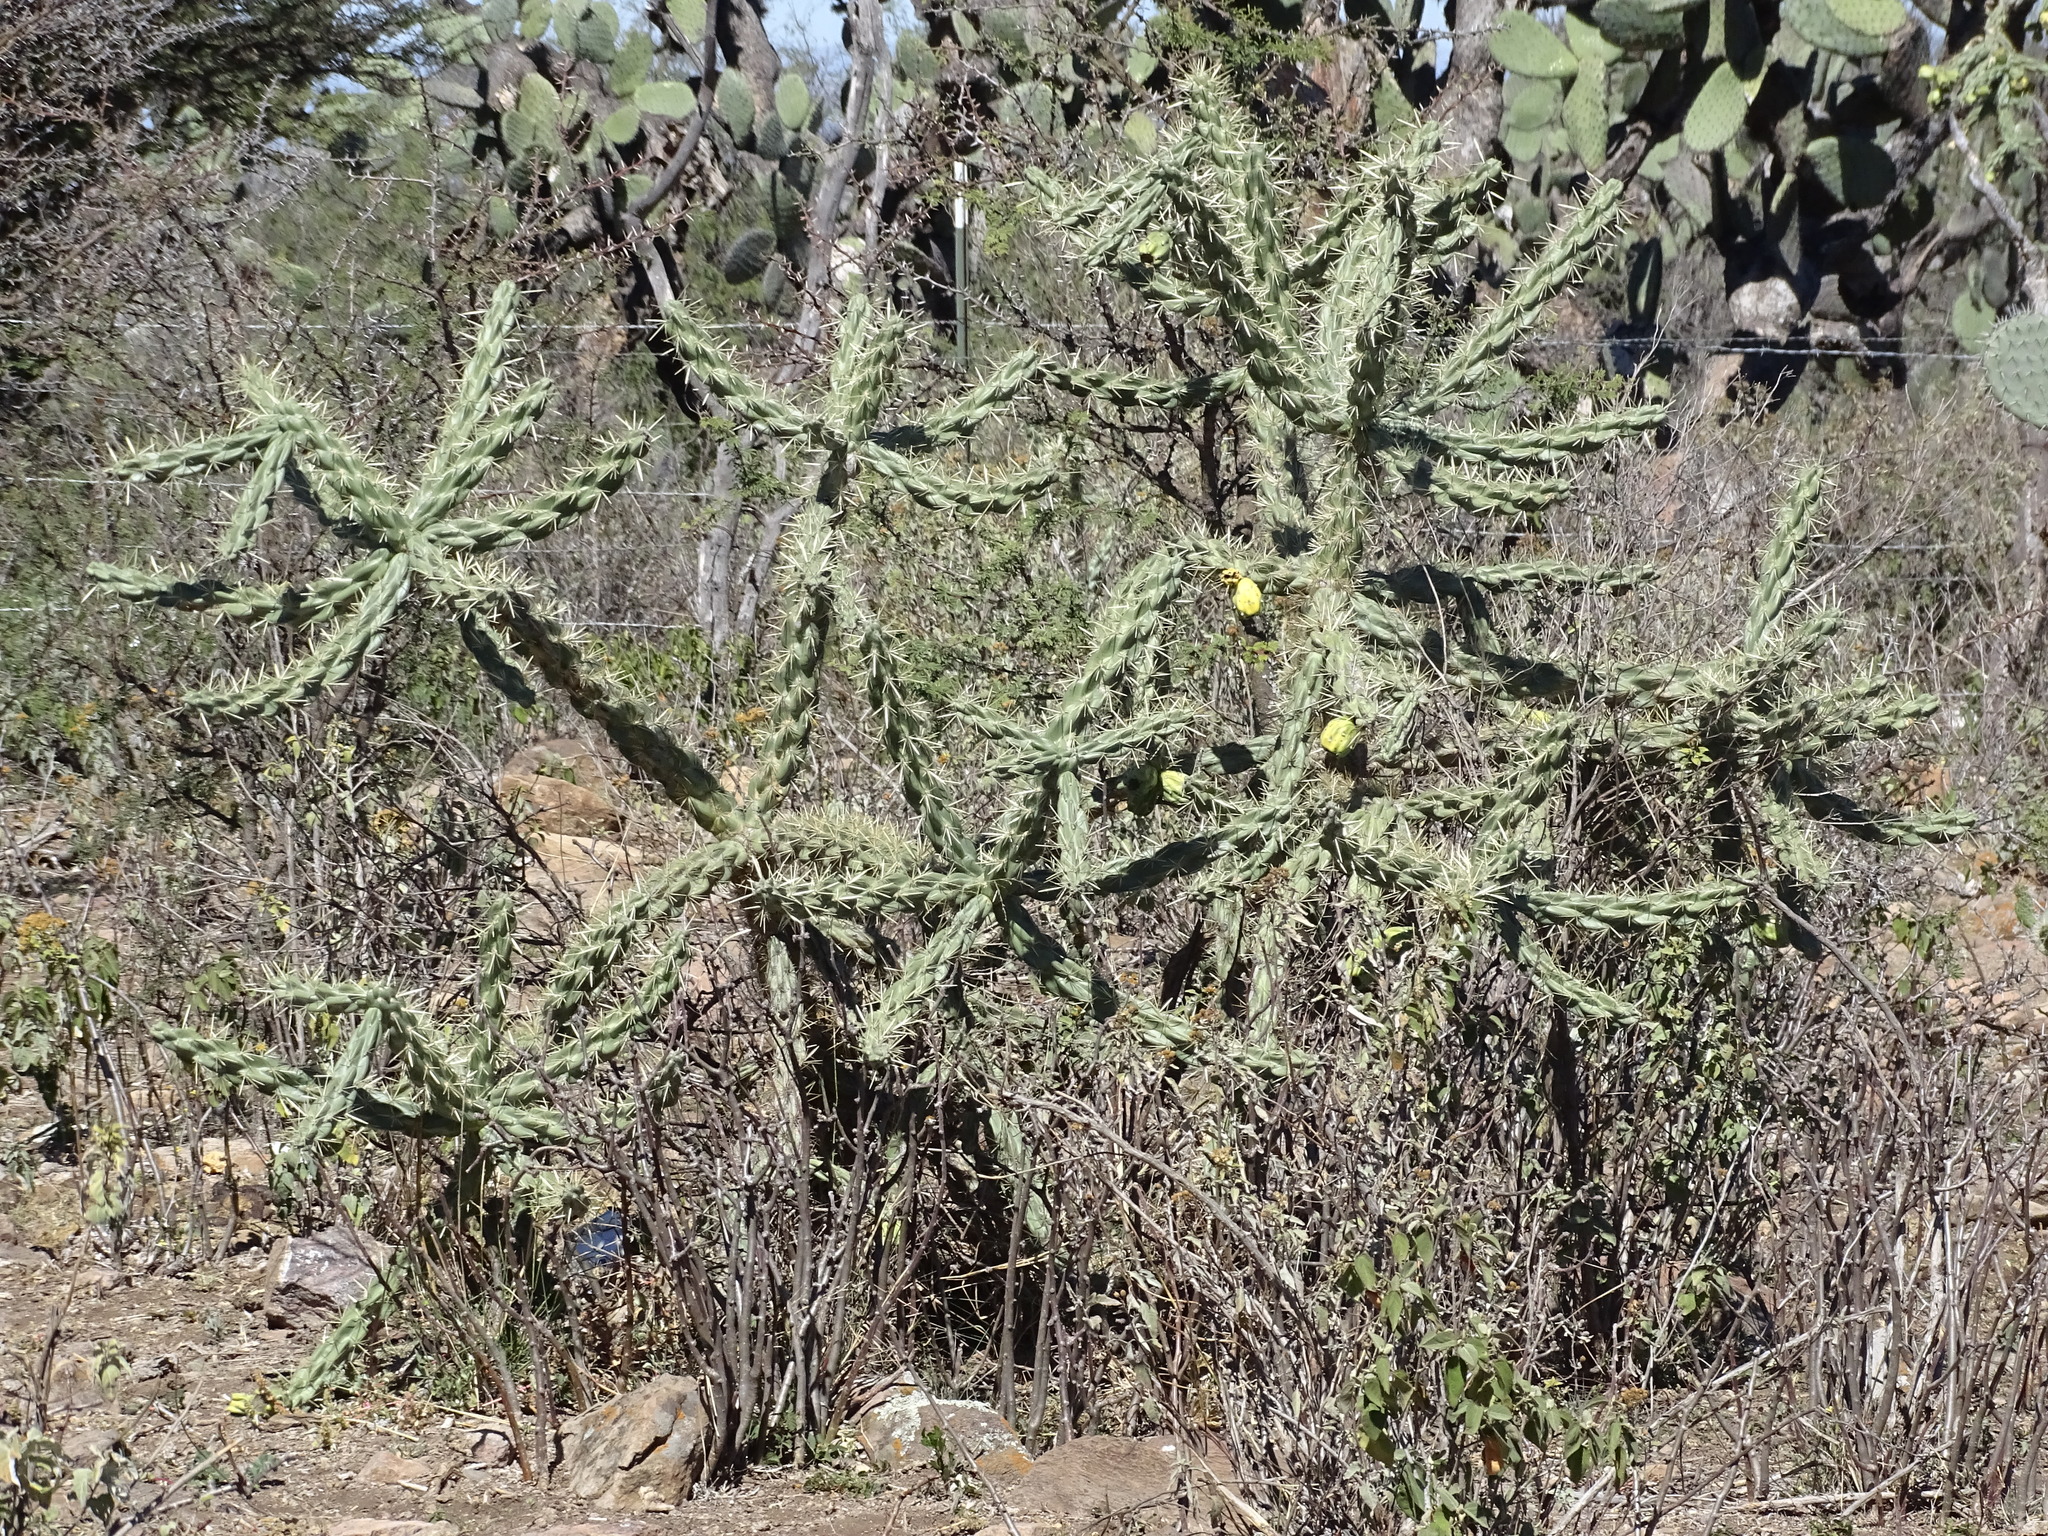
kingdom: Plantae
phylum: Tracheophyta
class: Magnoliopsida
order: Caryophyllales
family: Cactaceae
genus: Cylindropuntia
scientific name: Cylindropuntia imbricata
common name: Candelabrum cactus
